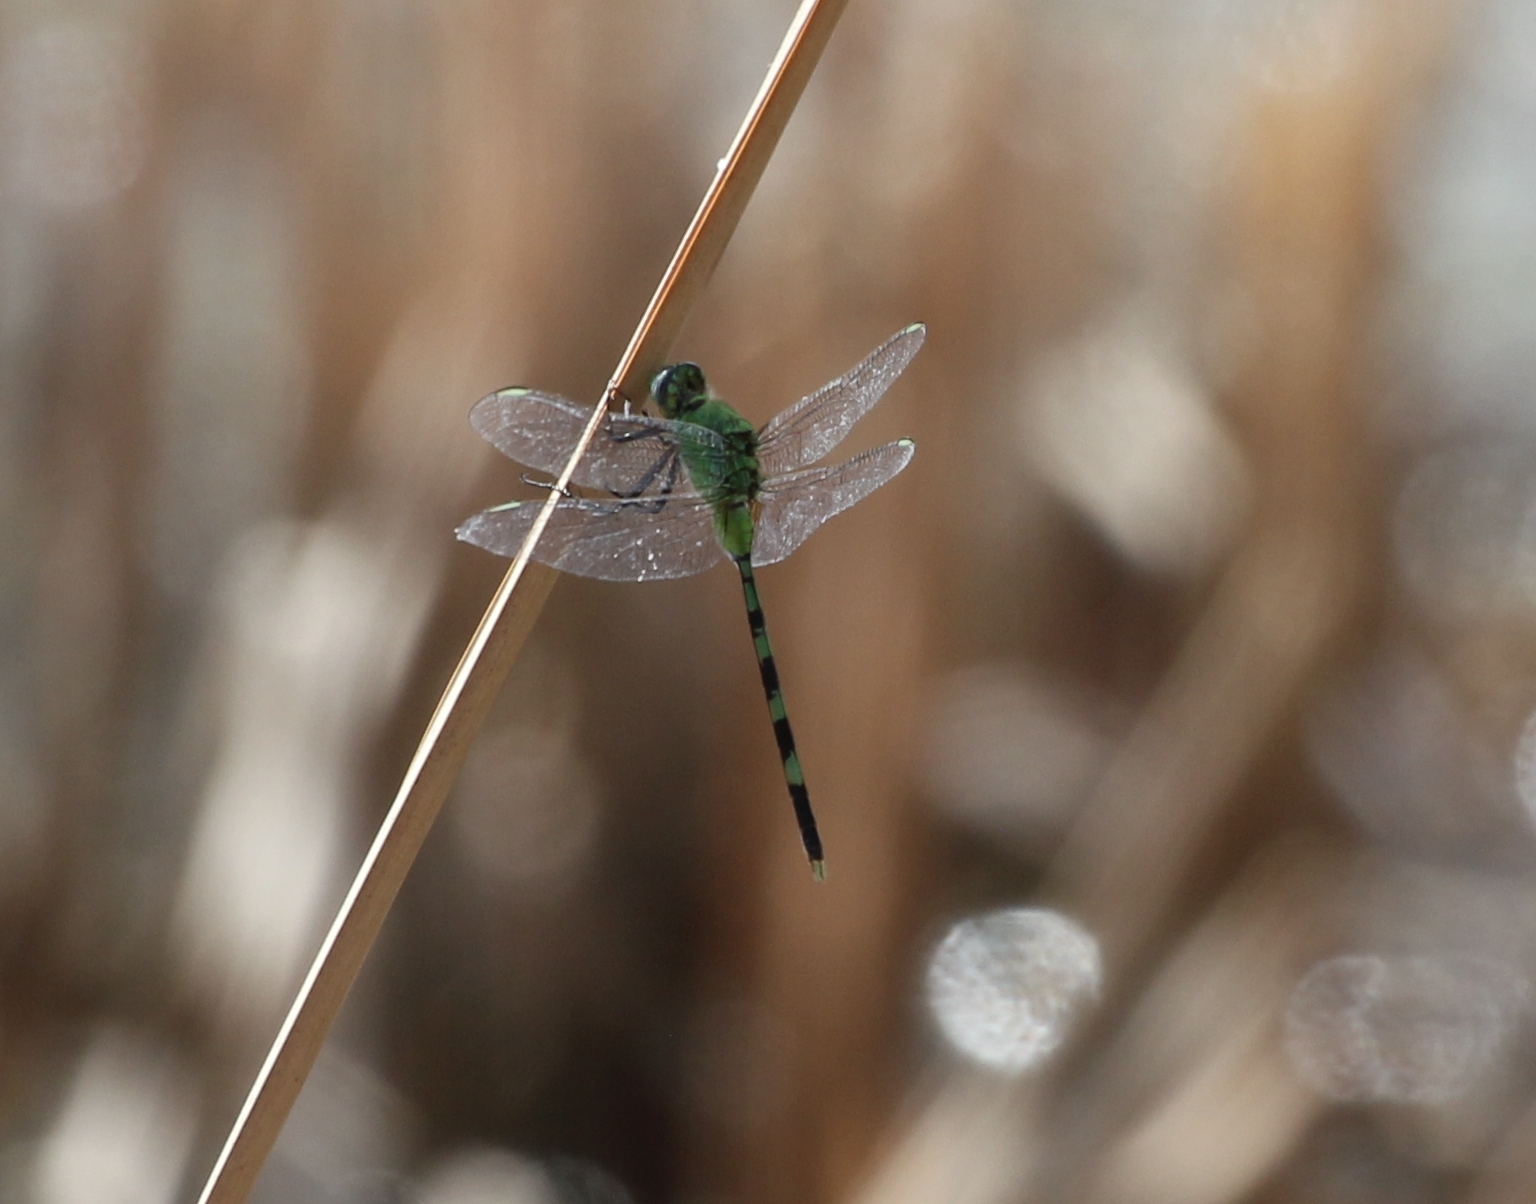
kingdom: Animalia
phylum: Arthropoda
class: Insecta
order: Odonata
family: Libellulidae
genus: Erythemis
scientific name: Erythemis vesiculosa
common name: Great pondhawk
